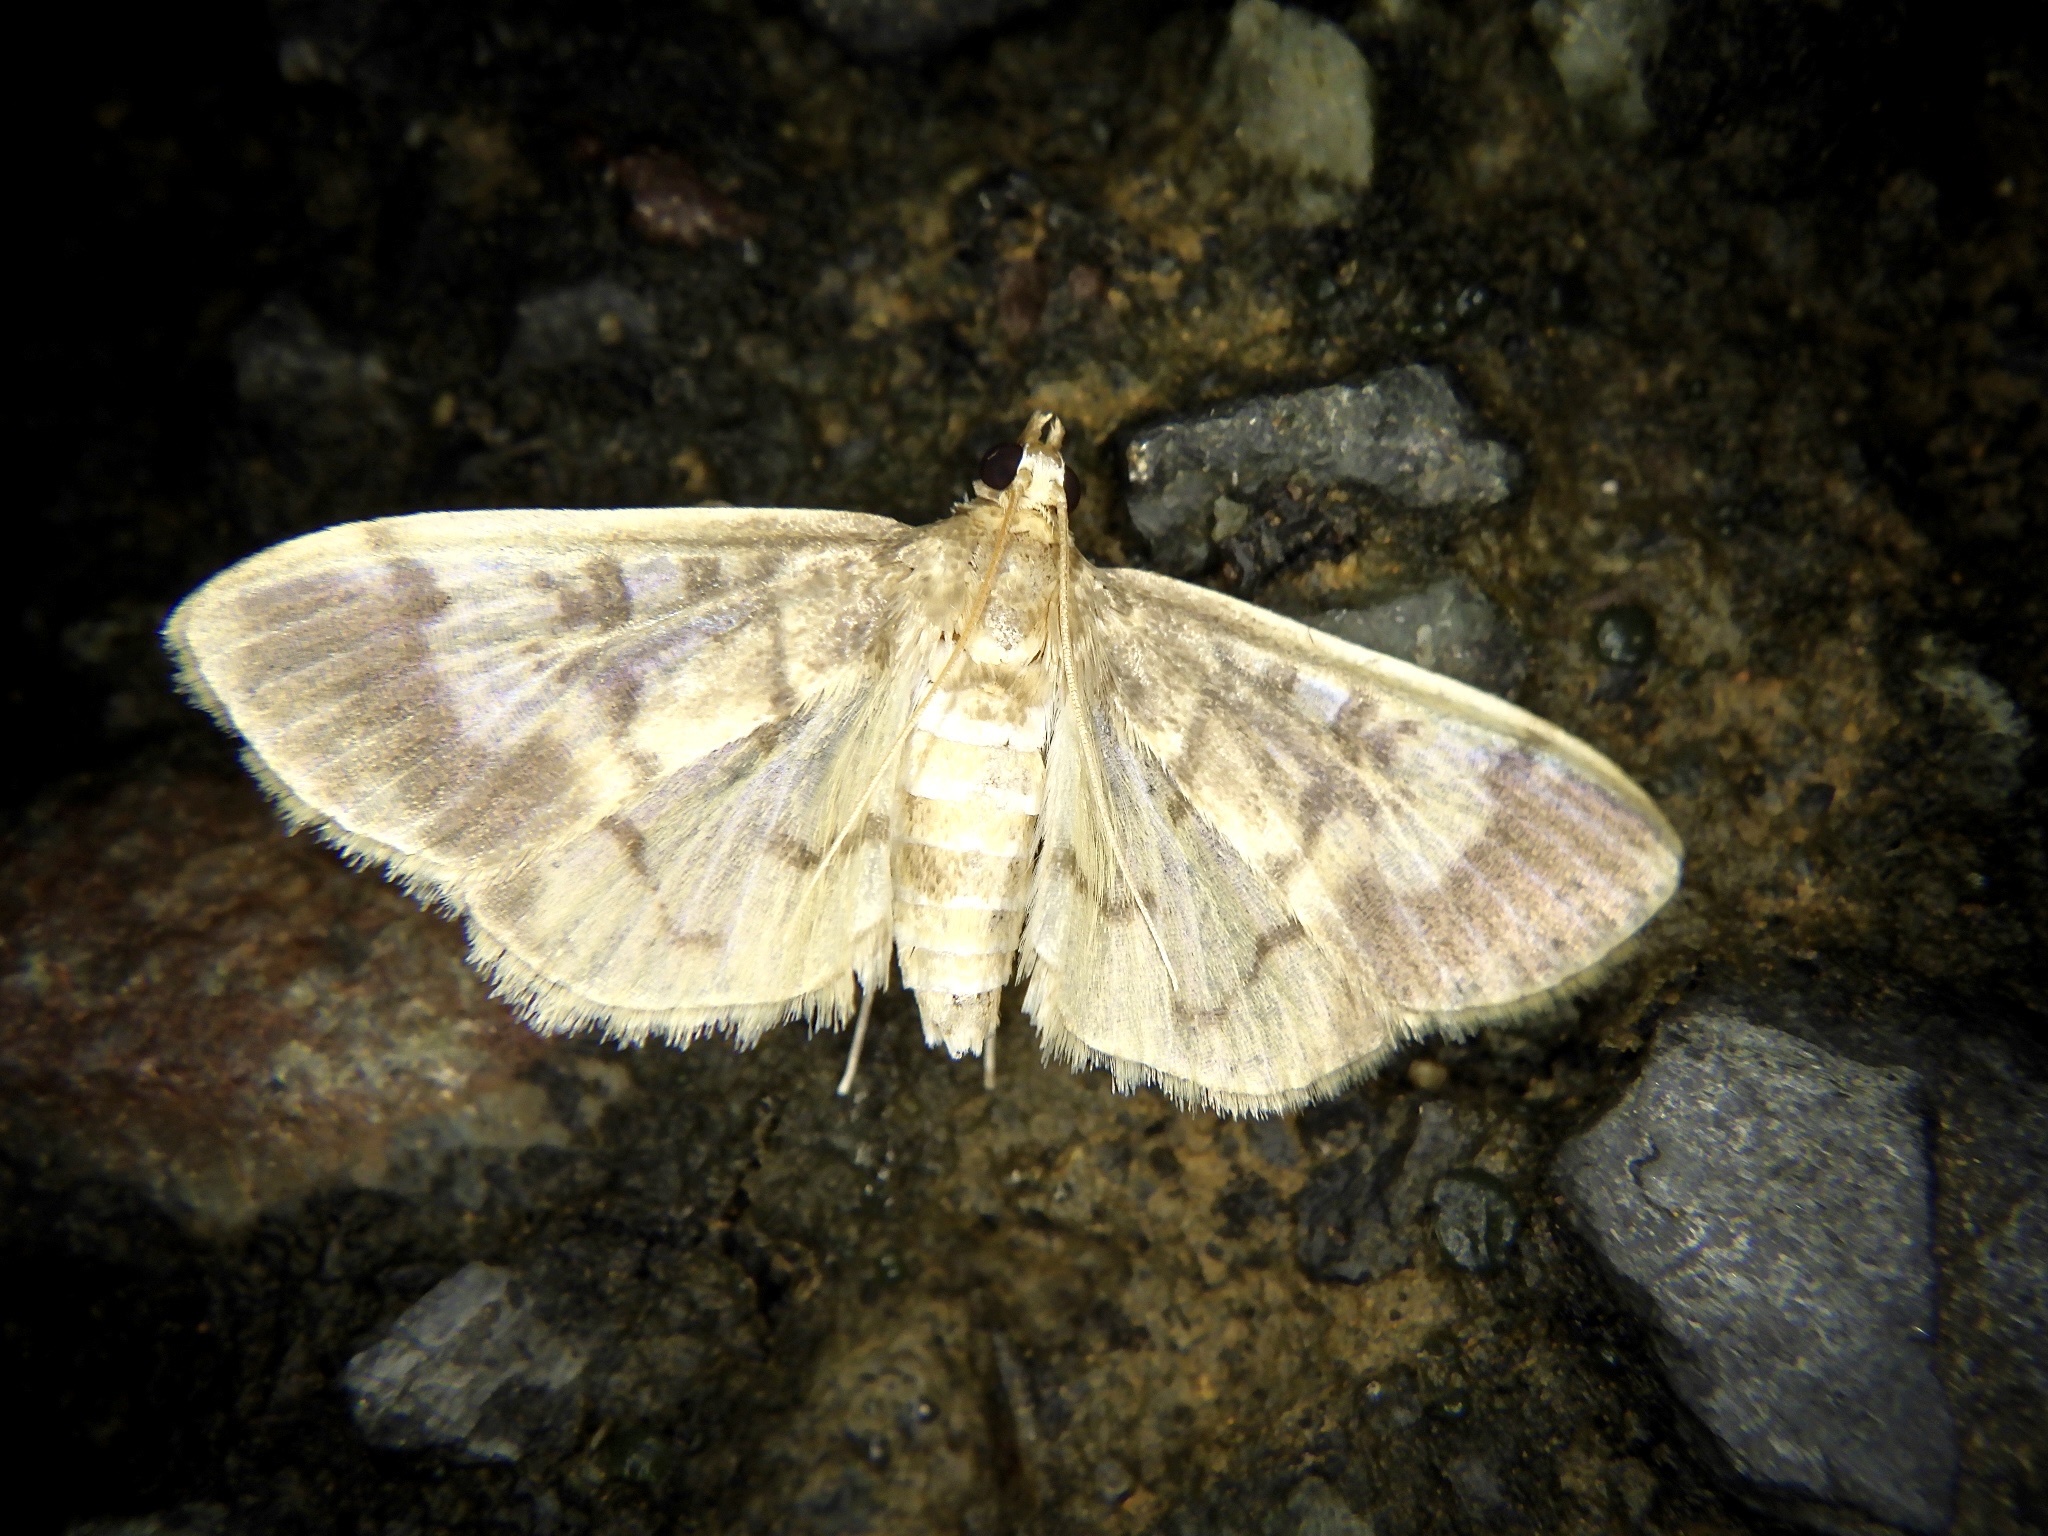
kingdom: Animalia
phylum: Arthropoda
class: Insecta
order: Lepidoptera
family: Crambidae
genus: Pseudebulea
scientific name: Pseudebulea fentoni
